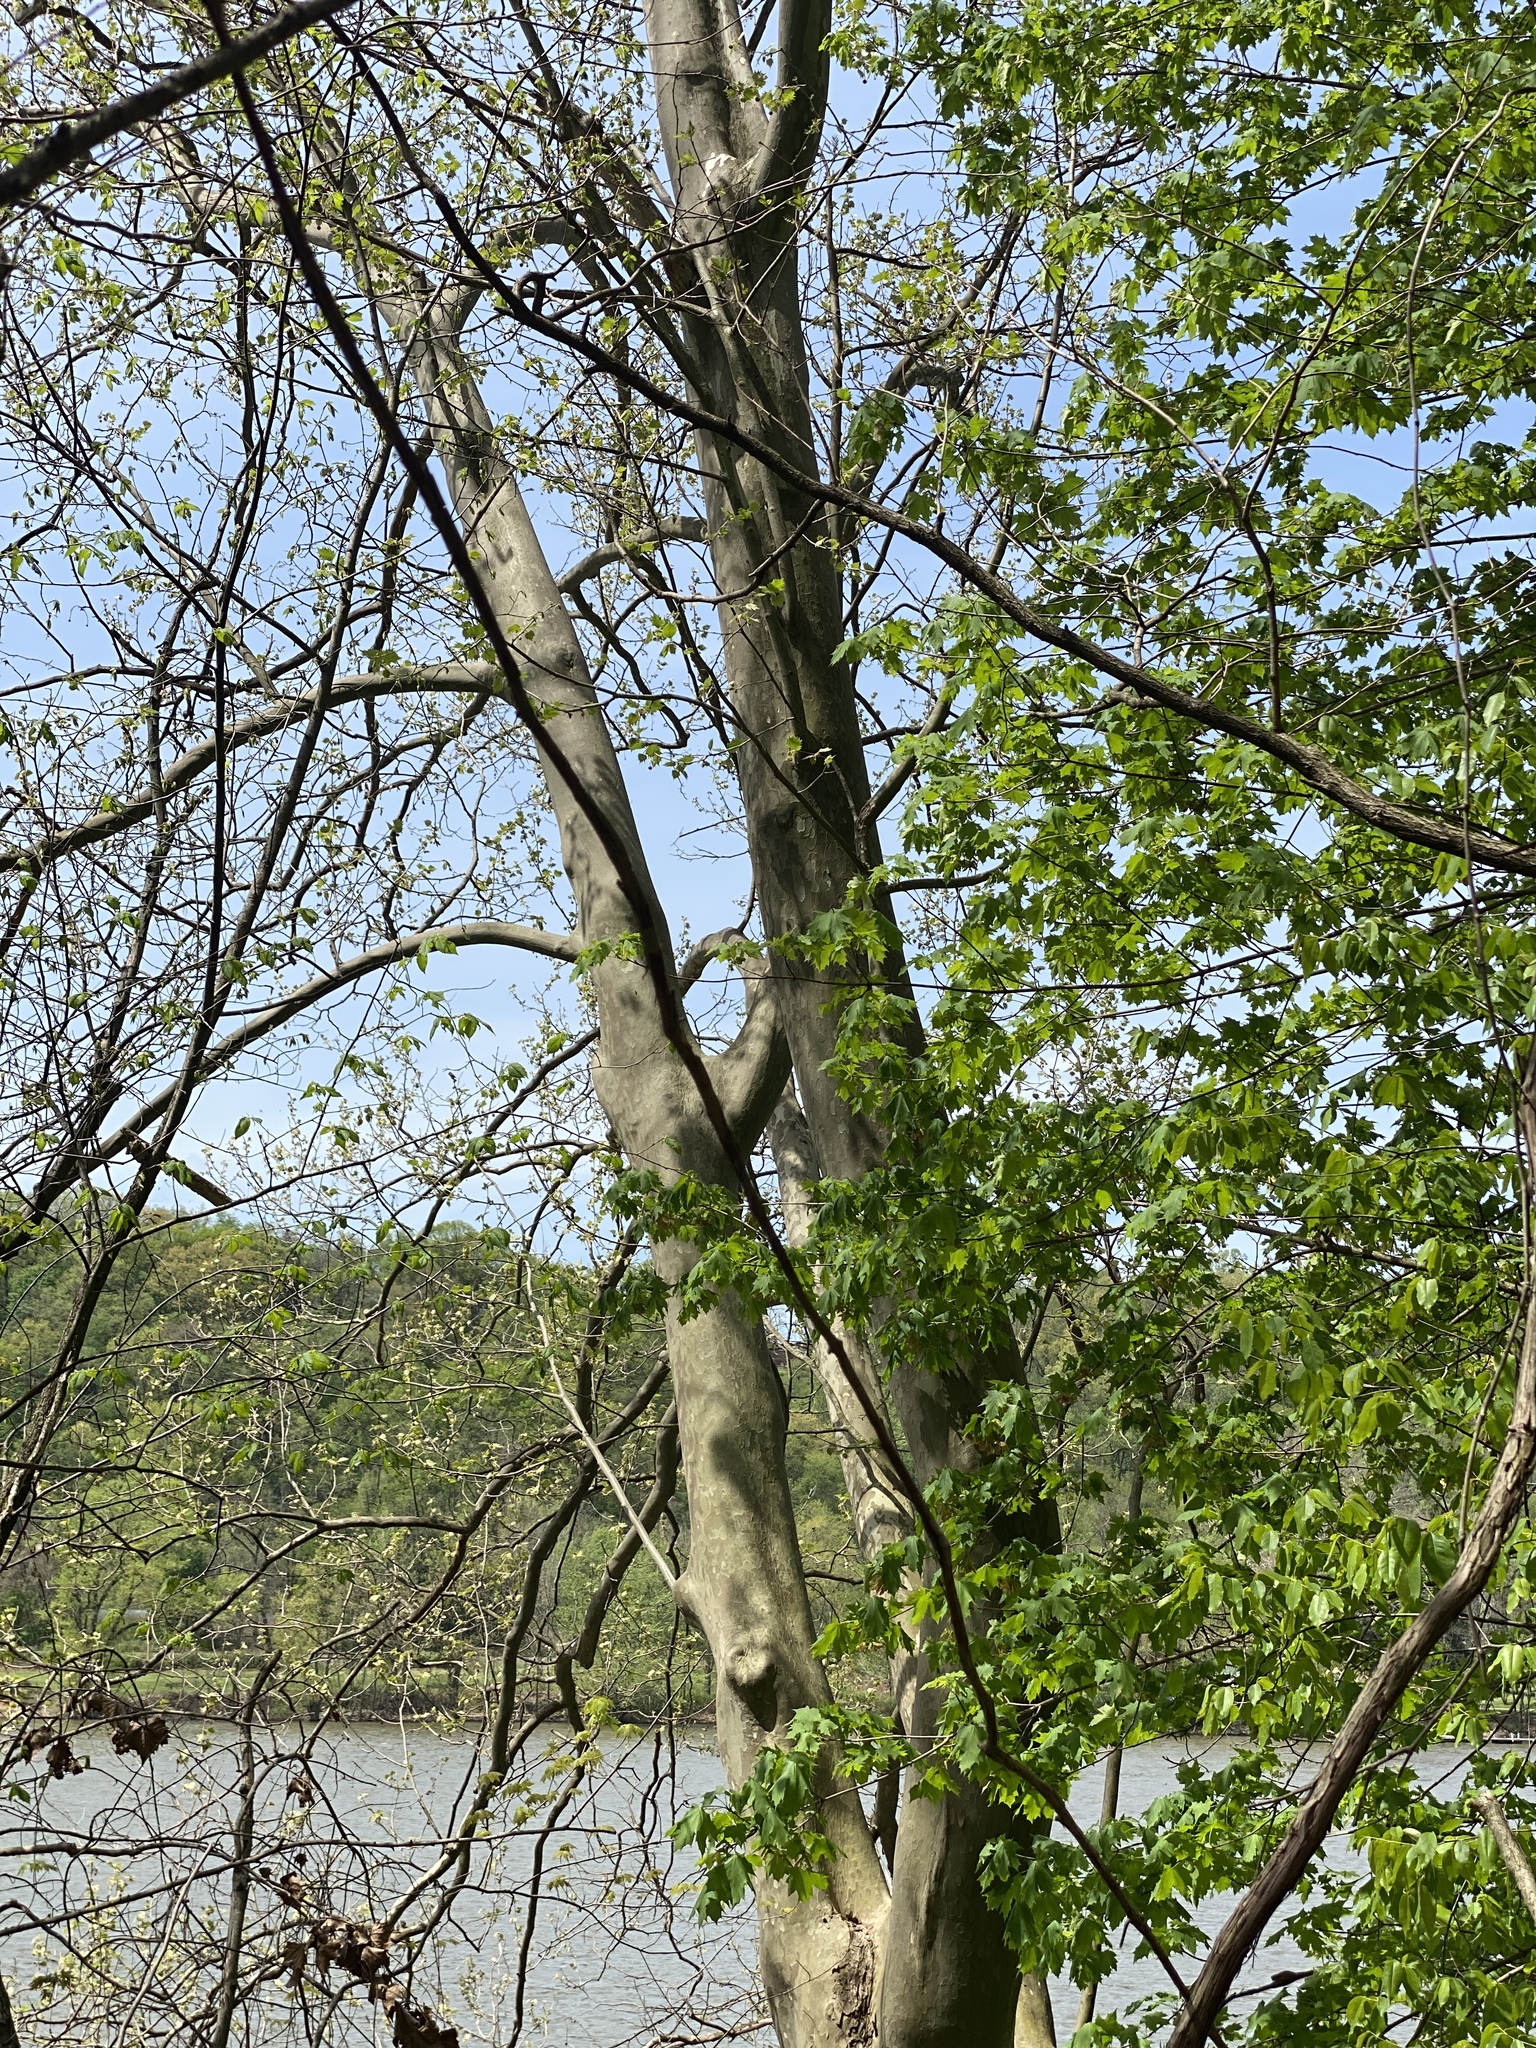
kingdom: Plantae
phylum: Tracheophyta
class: Magnoliopsida
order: Proteales
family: Platanaceae
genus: Platanus
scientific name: Platanus occidentalis
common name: American sycamore
